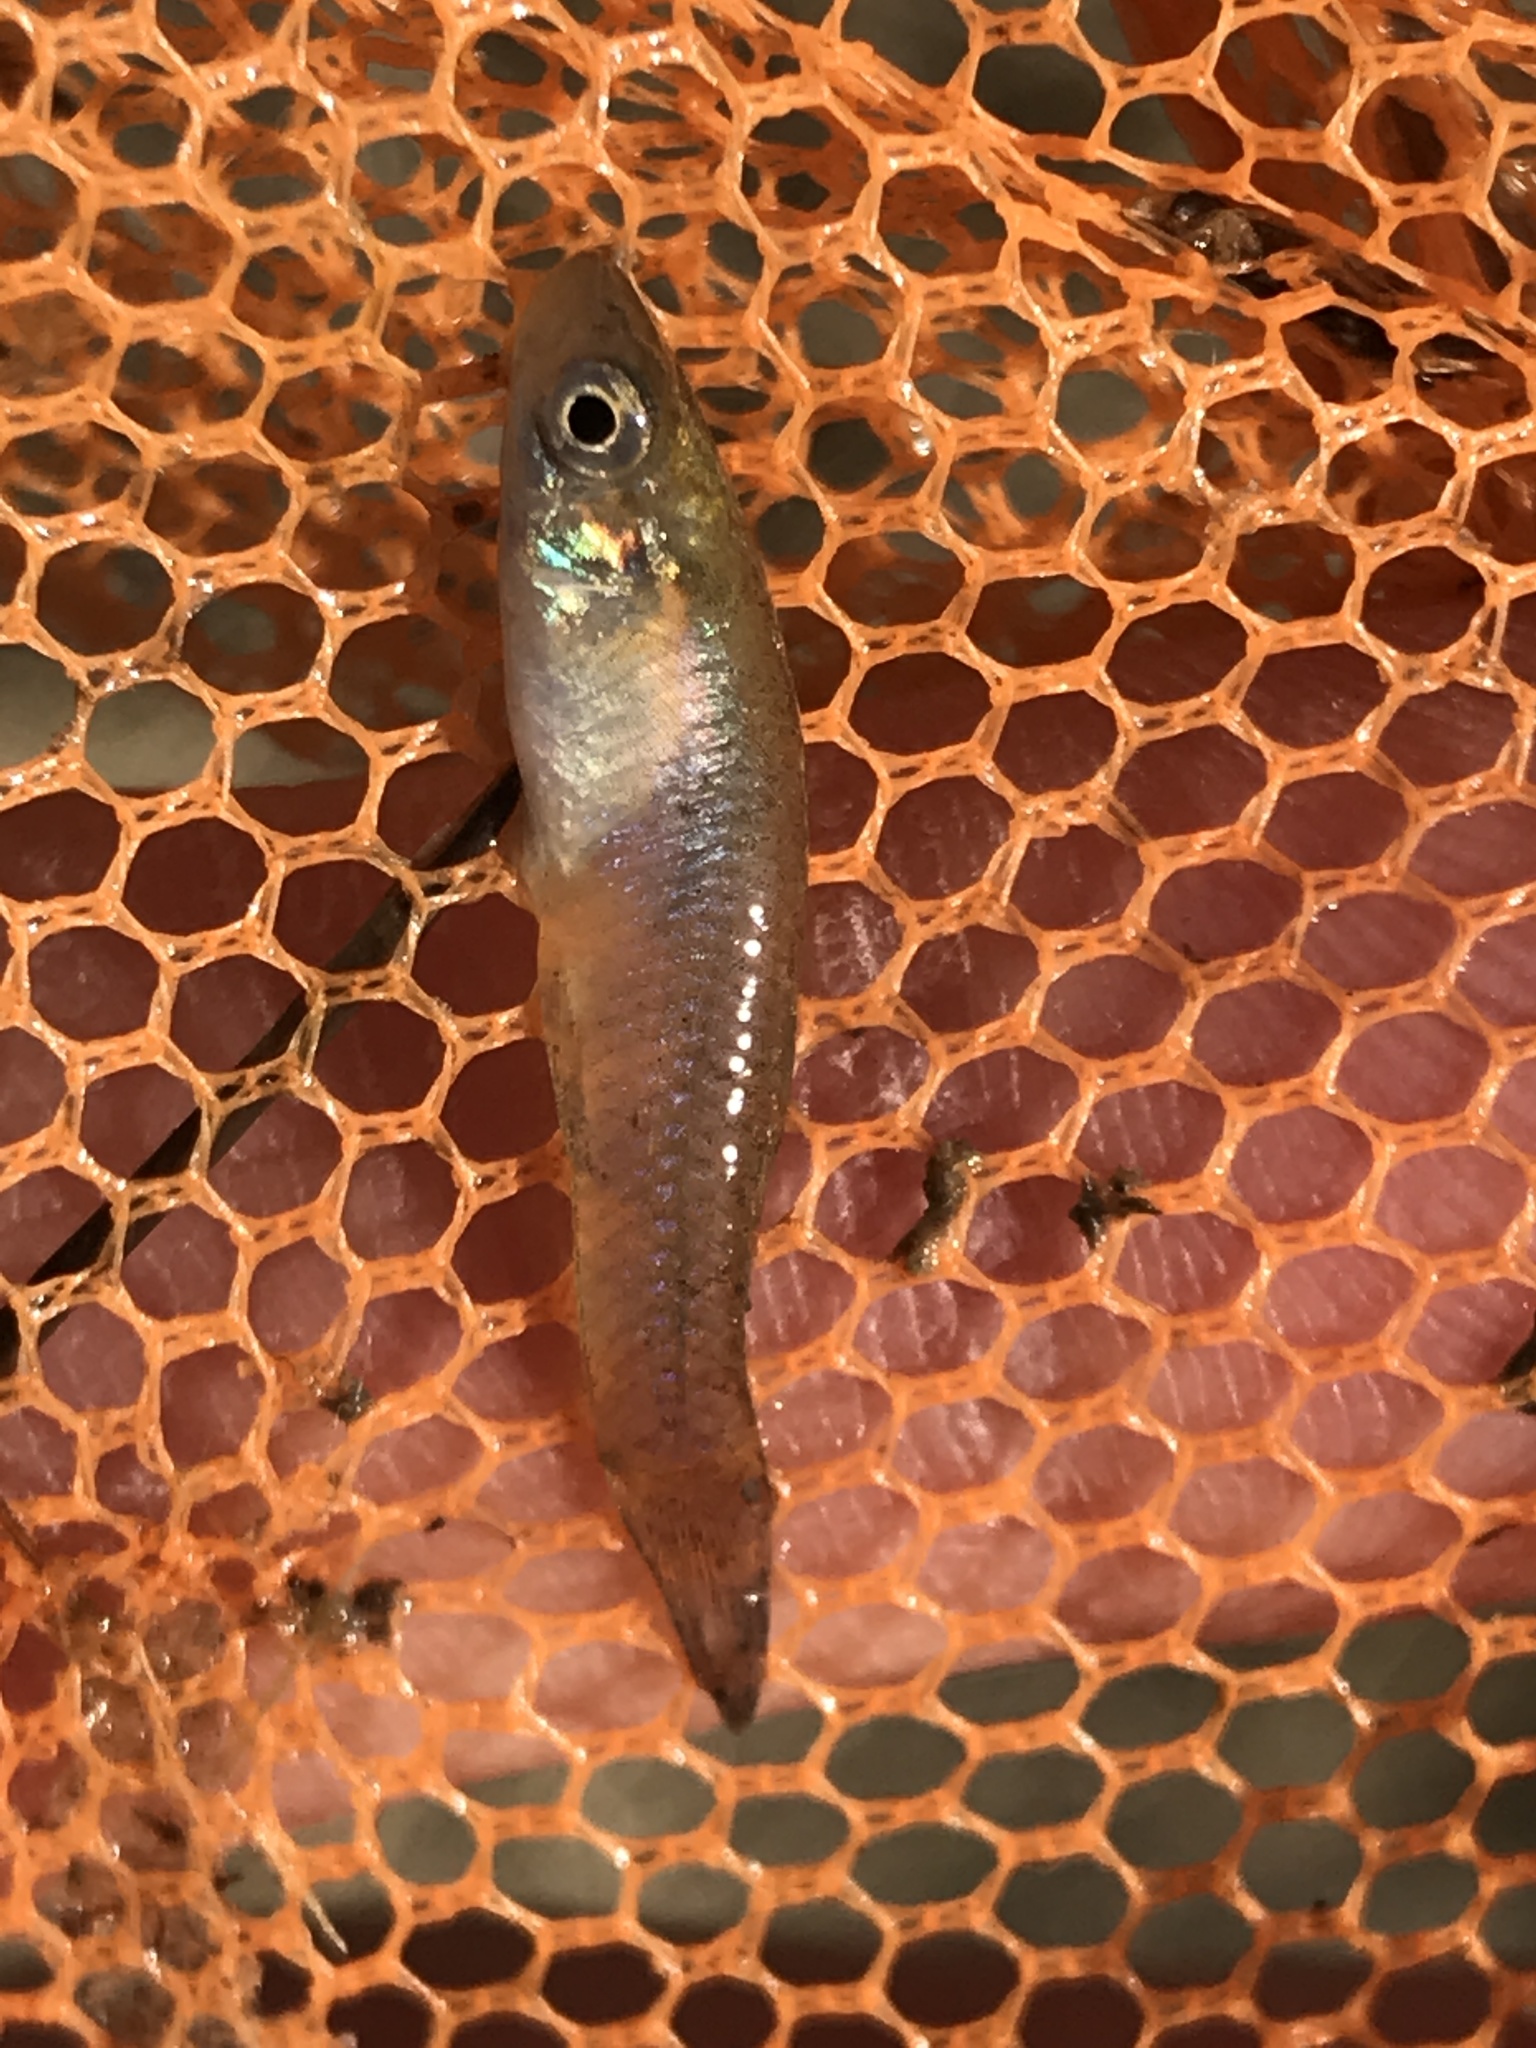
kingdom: Animalia
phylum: Chordata
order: Cyprinodontiformes
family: Poeciliidae
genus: Gambusia
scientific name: Gambusia affinis
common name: Mosquitofish
